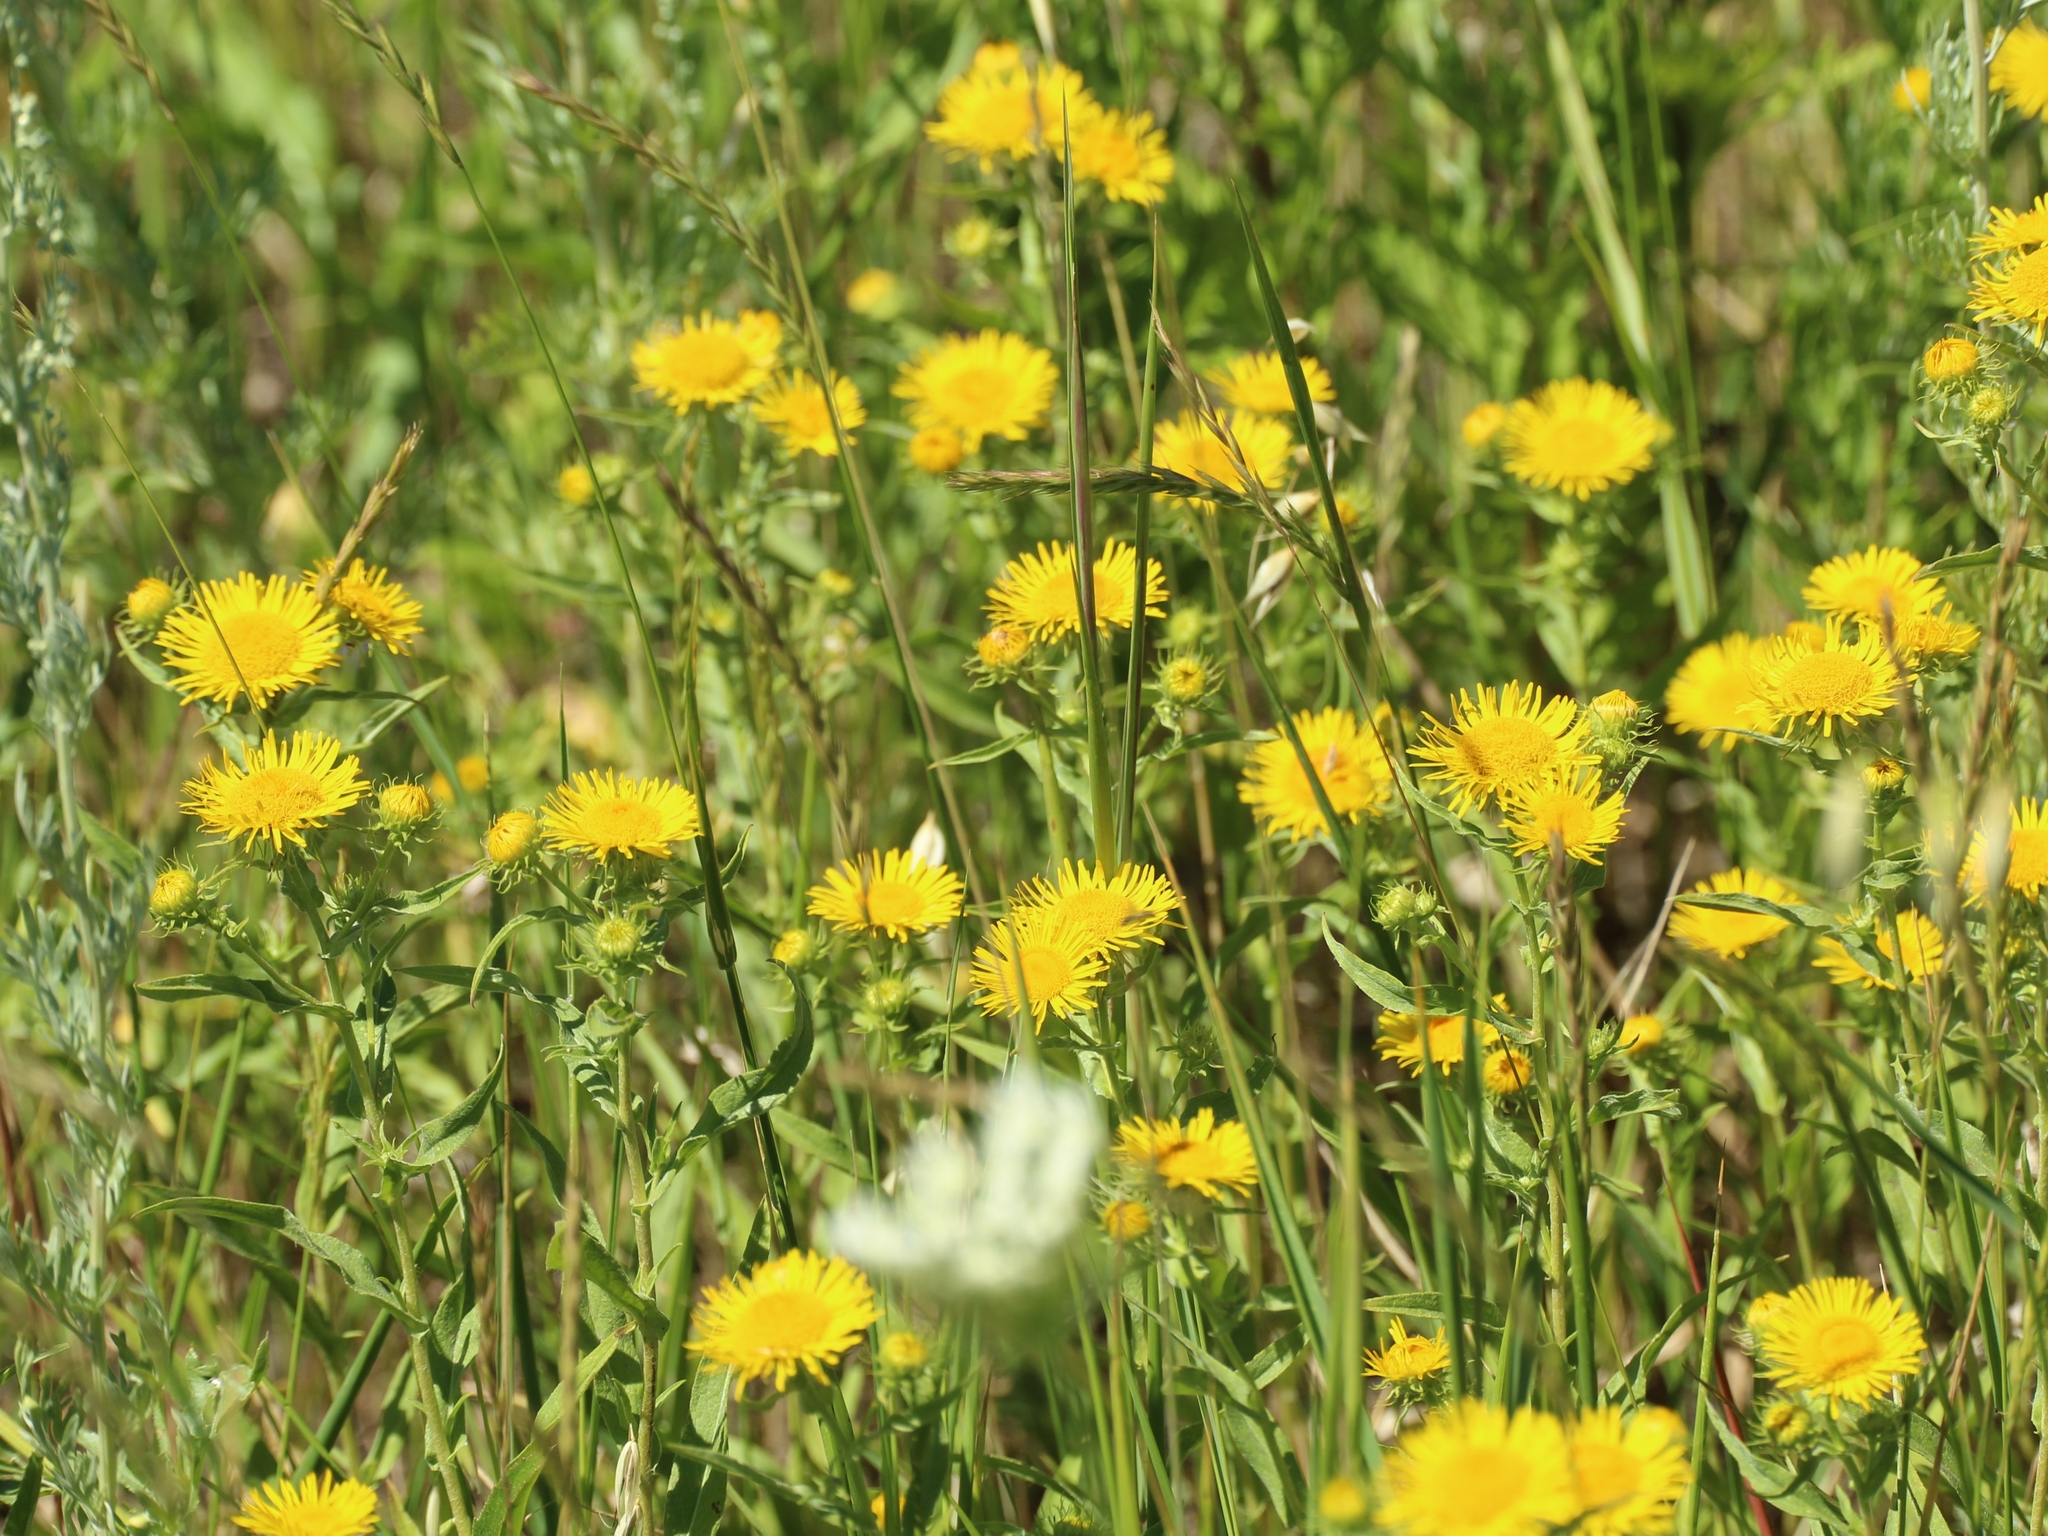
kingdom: Plantae
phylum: Tracheophyta
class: Magnoliopsida
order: Asterales
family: Asteraceae
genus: Pentanema
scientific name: Pentanema britannicum
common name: British elecampane
